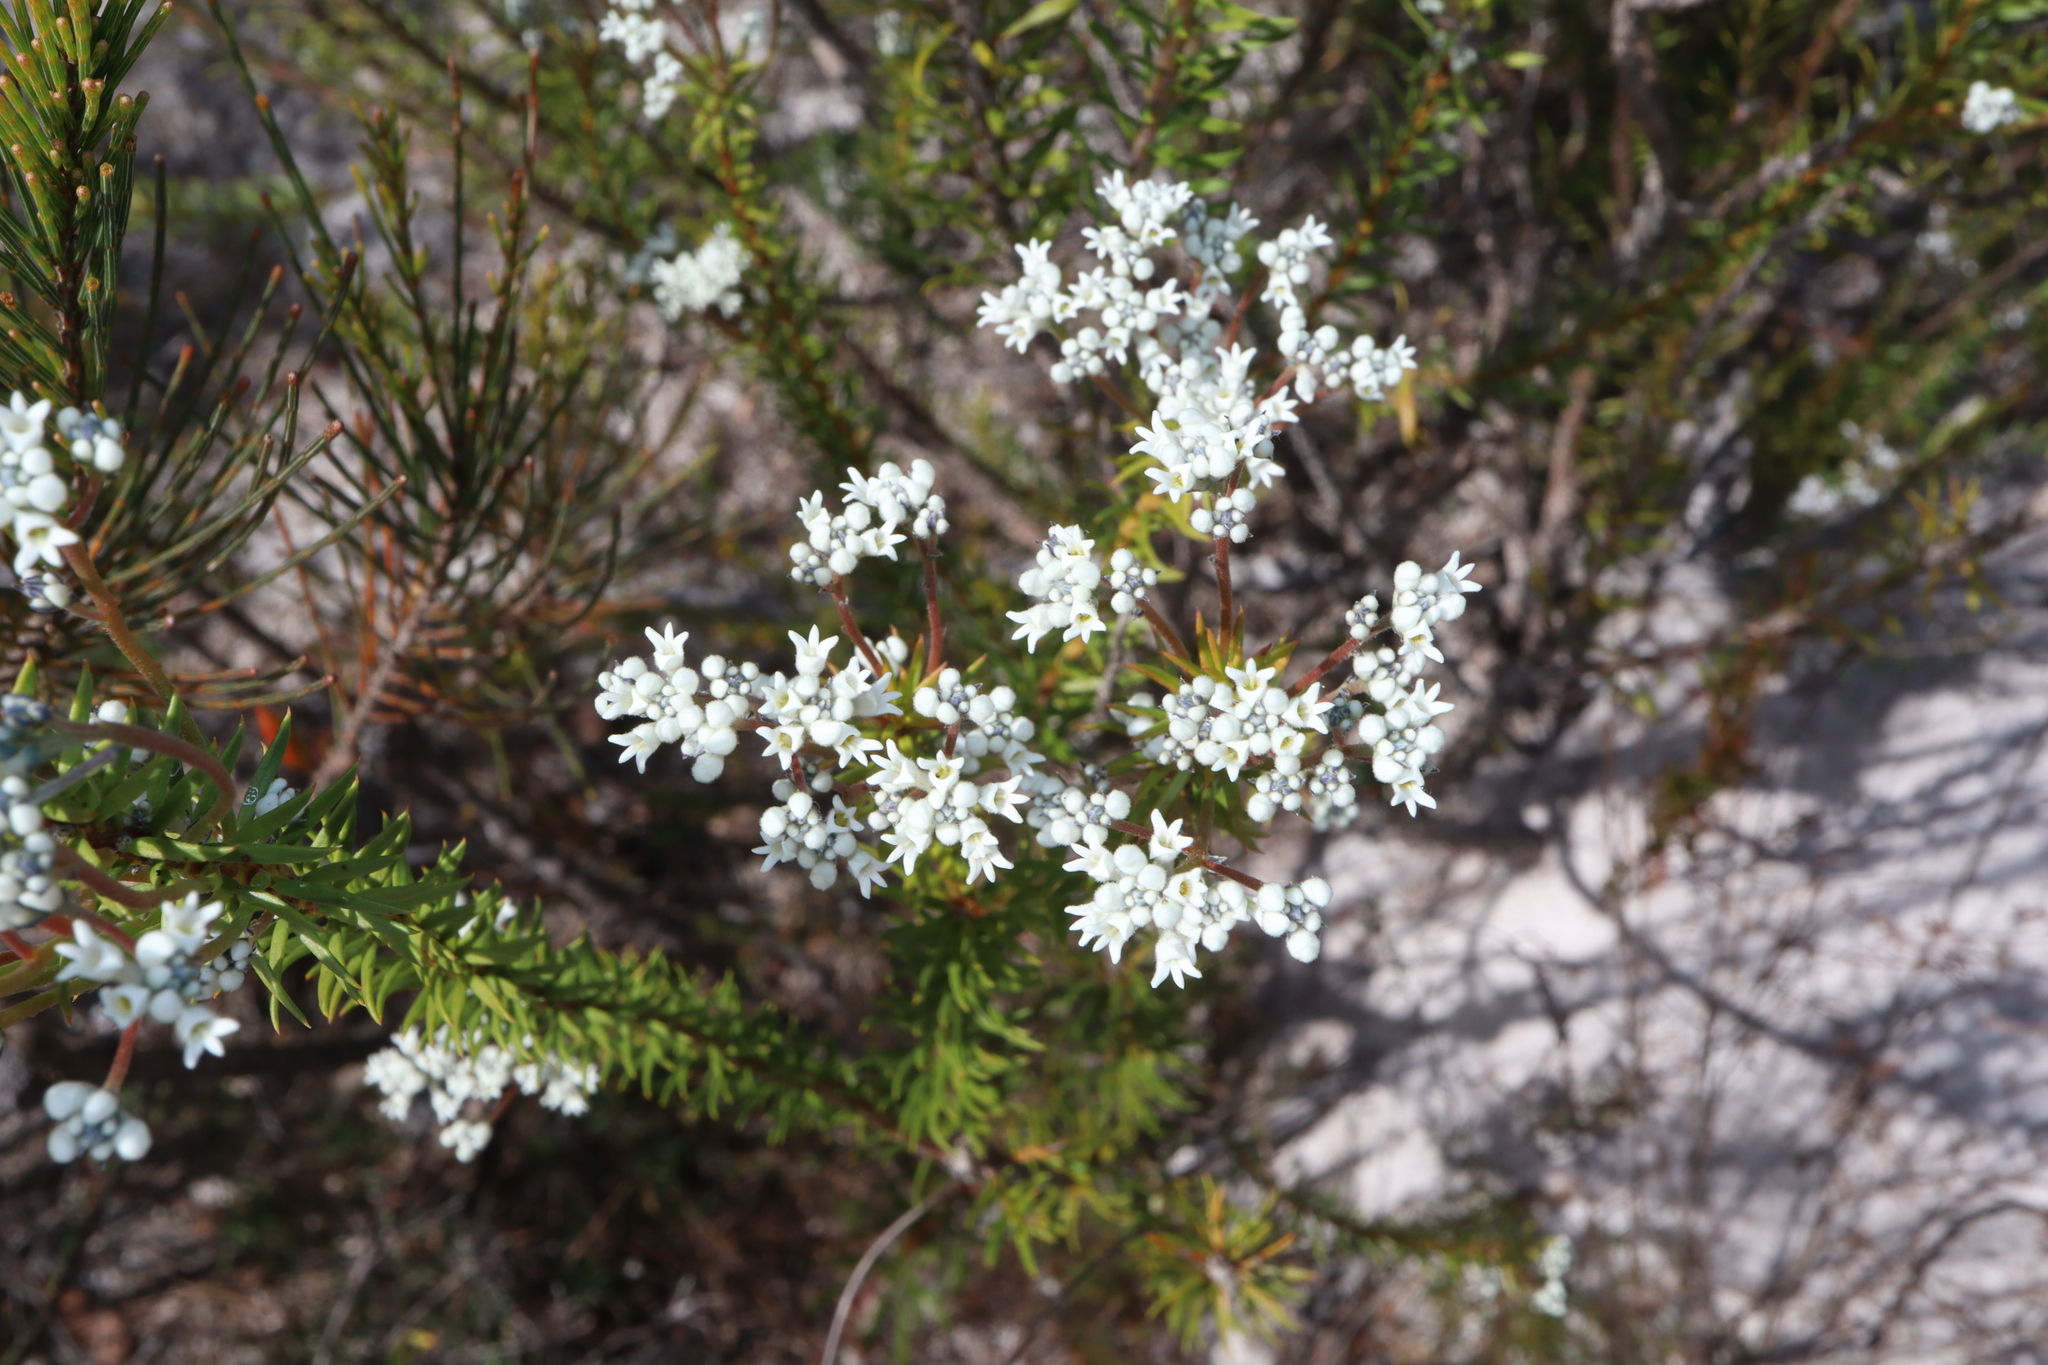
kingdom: Plantae
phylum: Tracheophyta
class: Magnoliopsida
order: Proteales
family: Proteaceae
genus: Conospermum
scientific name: Conospermum taxifolium
